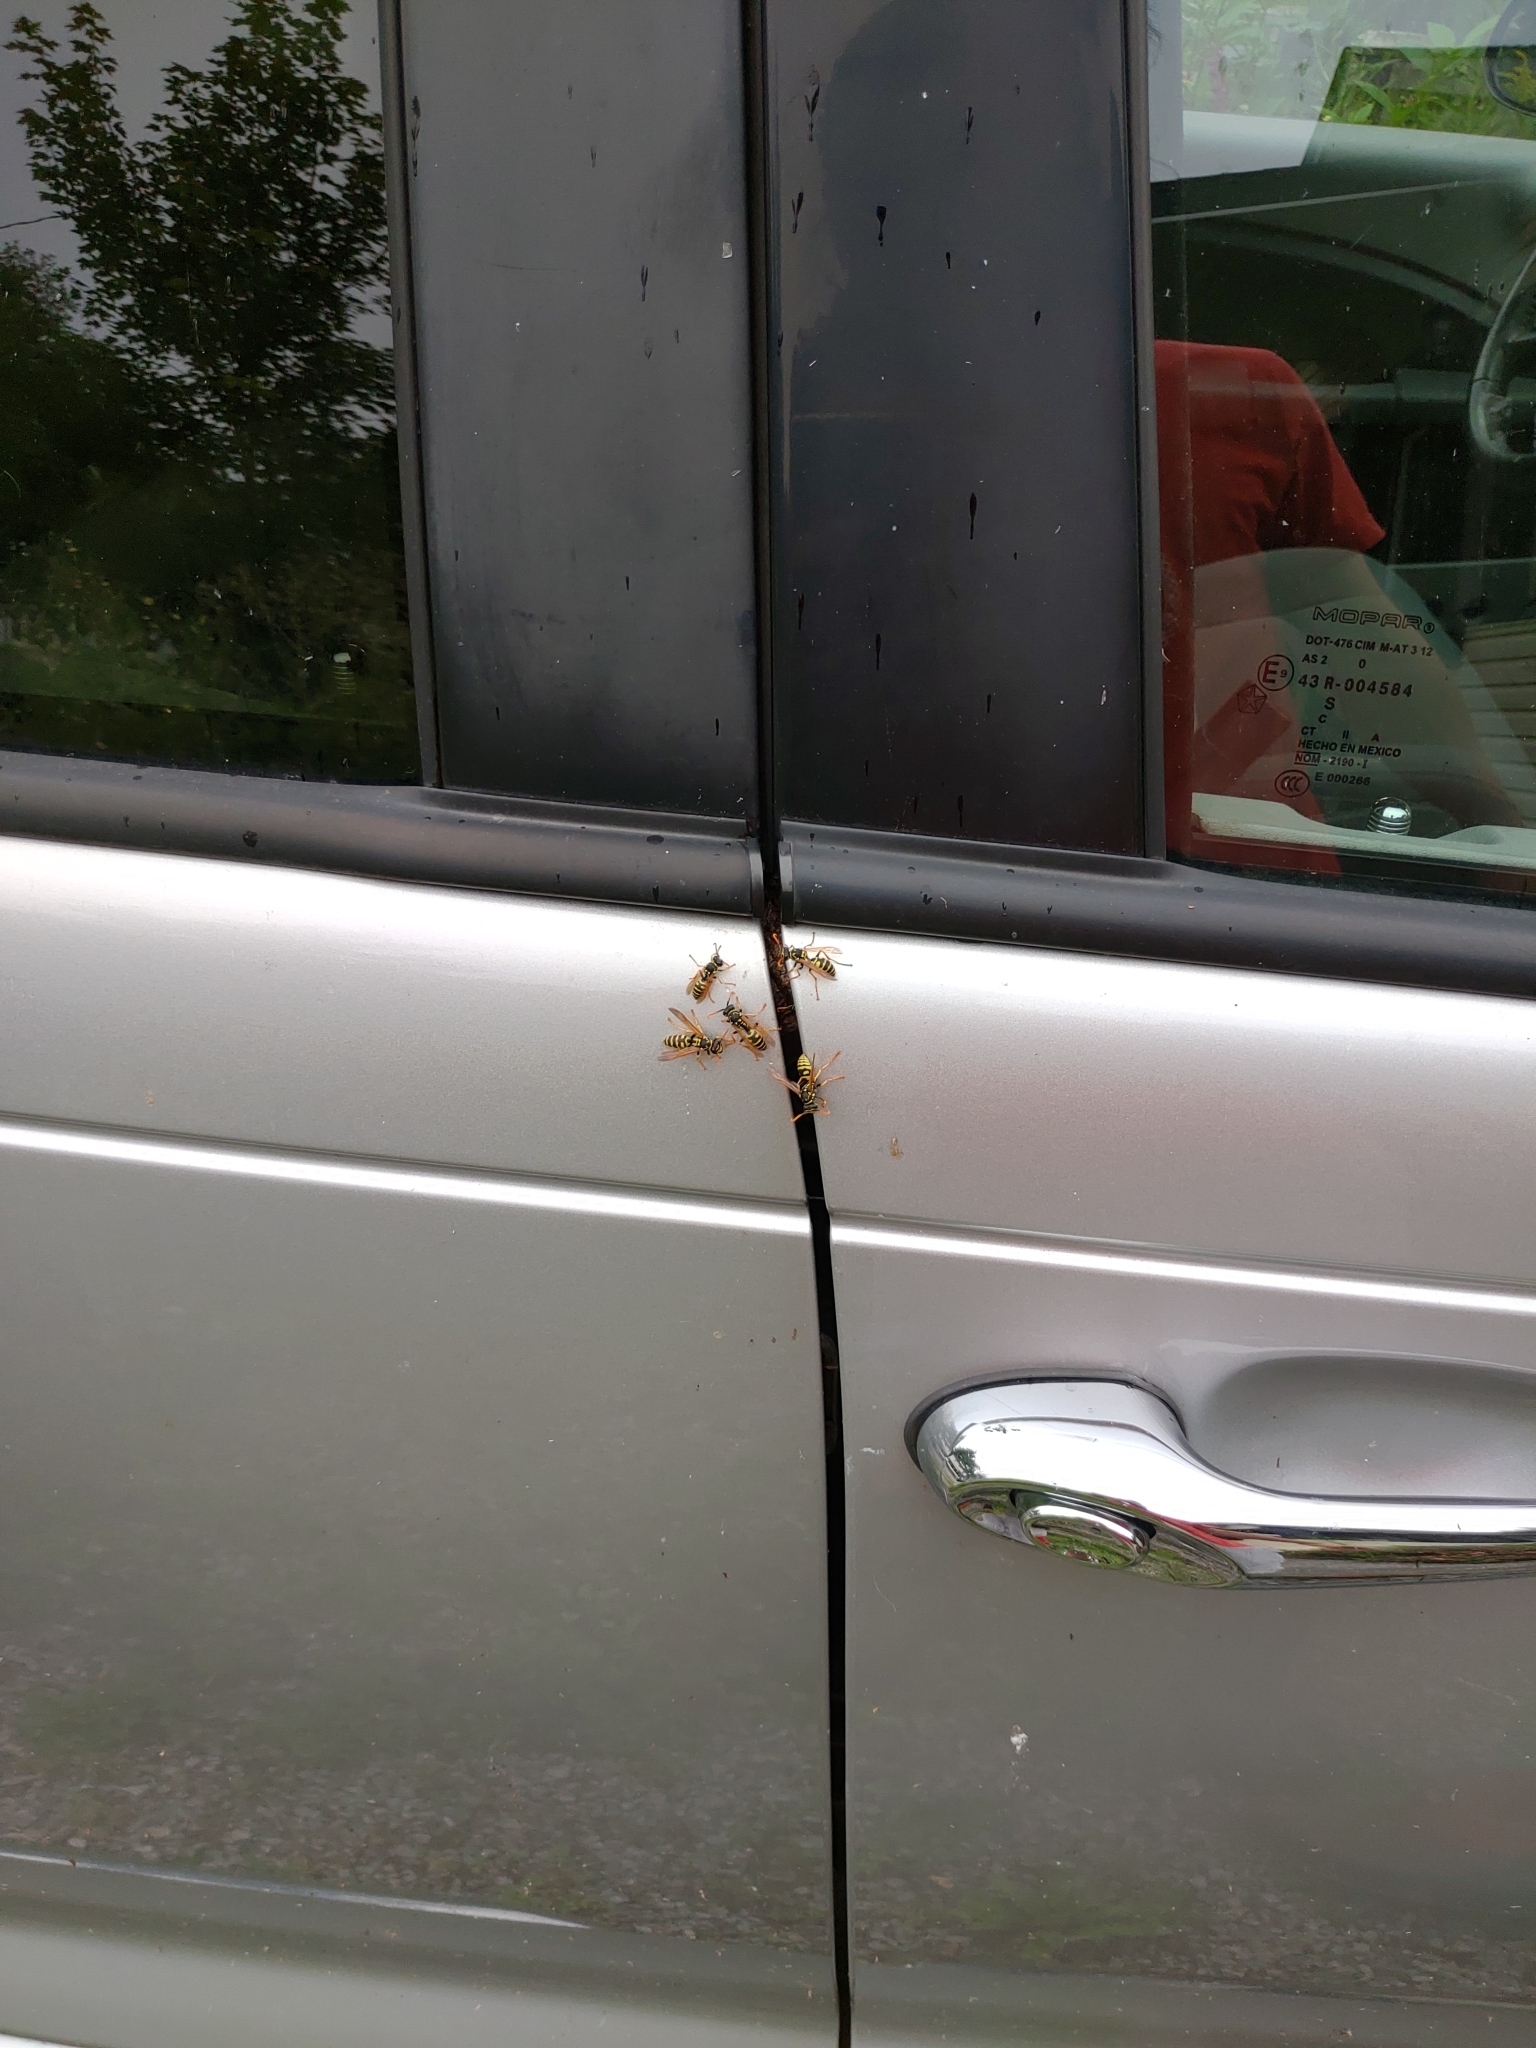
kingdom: Animalia
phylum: Arthropoda
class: Insecta
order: Hymenoptera
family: Eumenidae
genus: Polistes
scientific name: Polistes dominula
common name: Paper wasp
